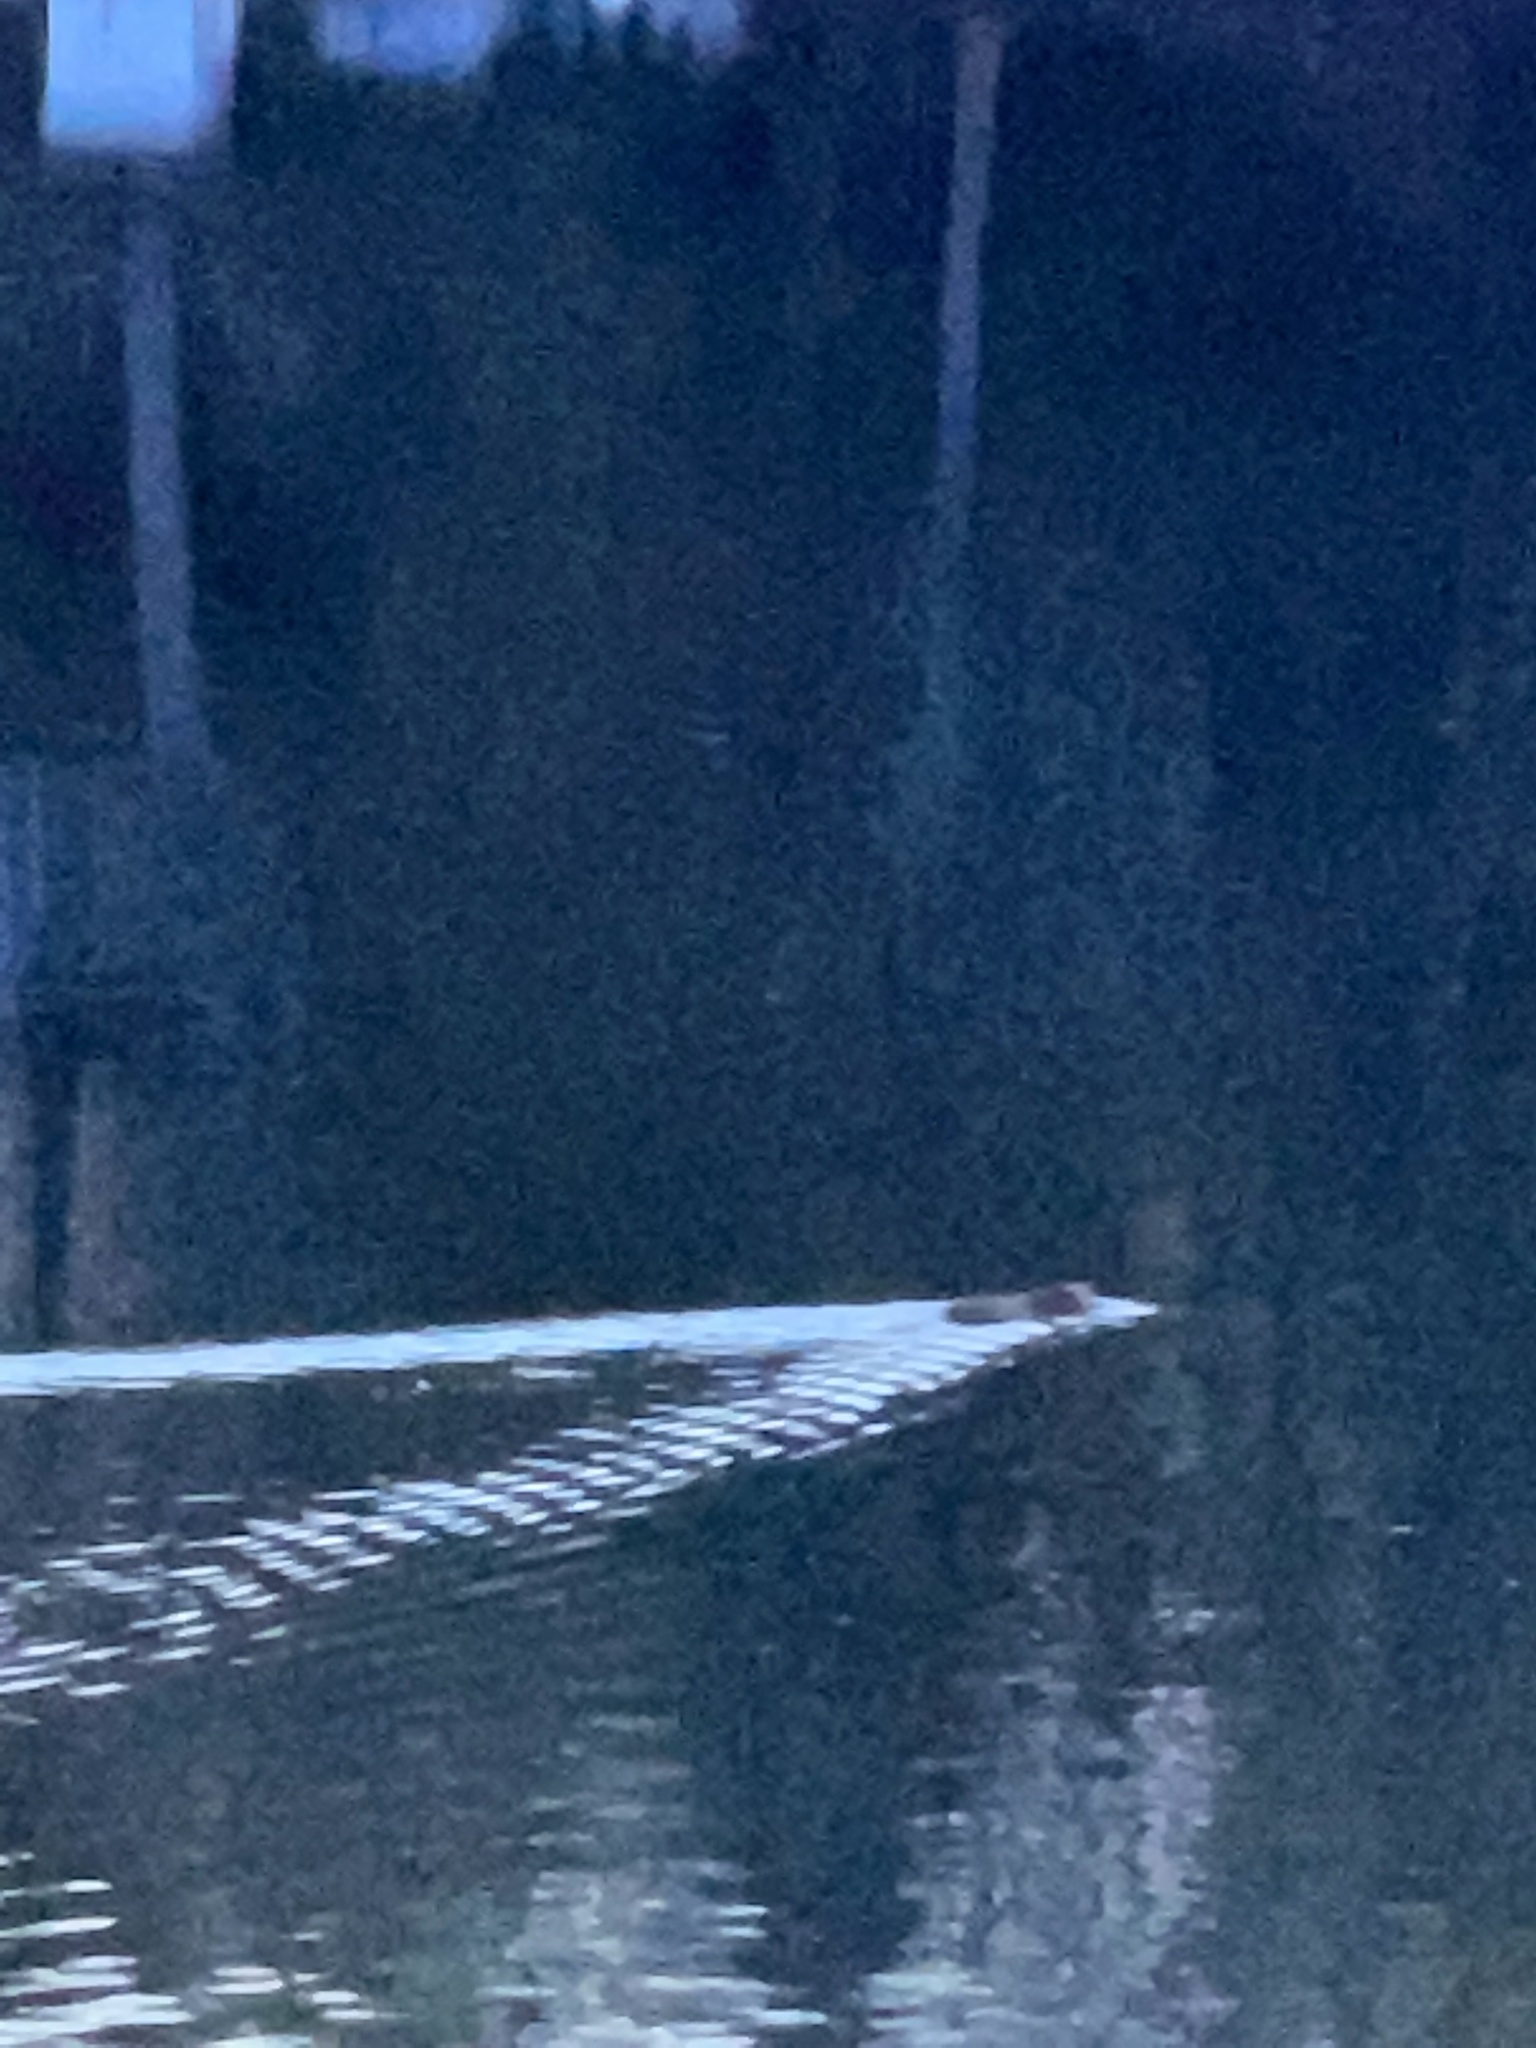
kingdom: Animalia
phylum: Chordata
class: Mammalia
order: Rodentia
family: Cricetidae
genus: Ondatra
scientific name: Ondatra zibethicus
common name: Muskrat
